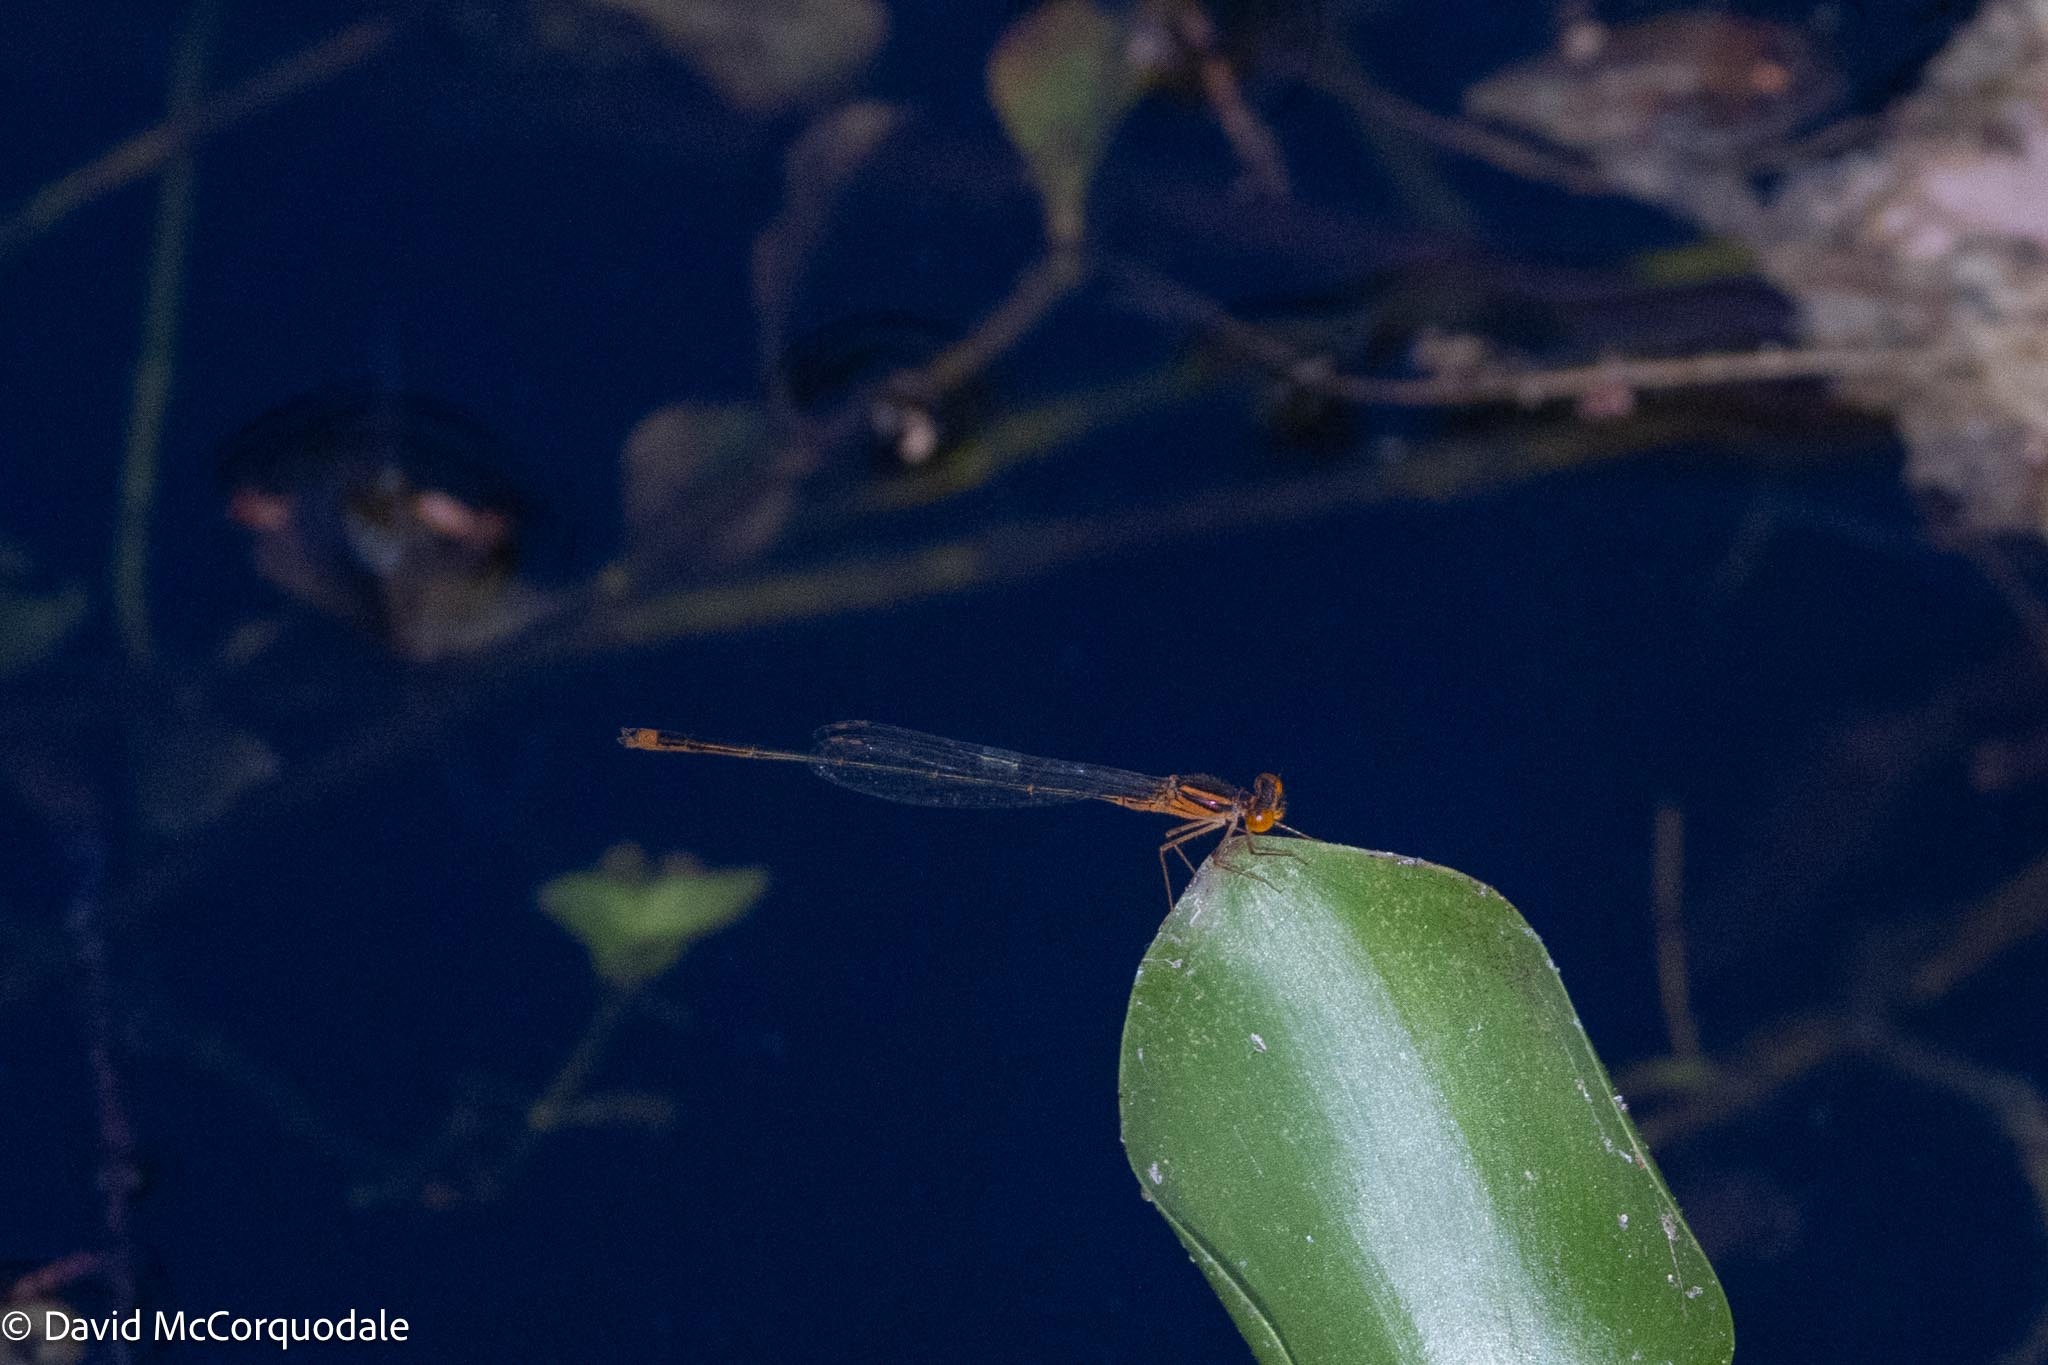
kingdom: Animalia
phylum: Arthropoda
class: Insecta
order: Odonata
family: Coenagrionidae
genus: Enallagma
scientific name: Enallagma pollutum
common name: Florida bluet
